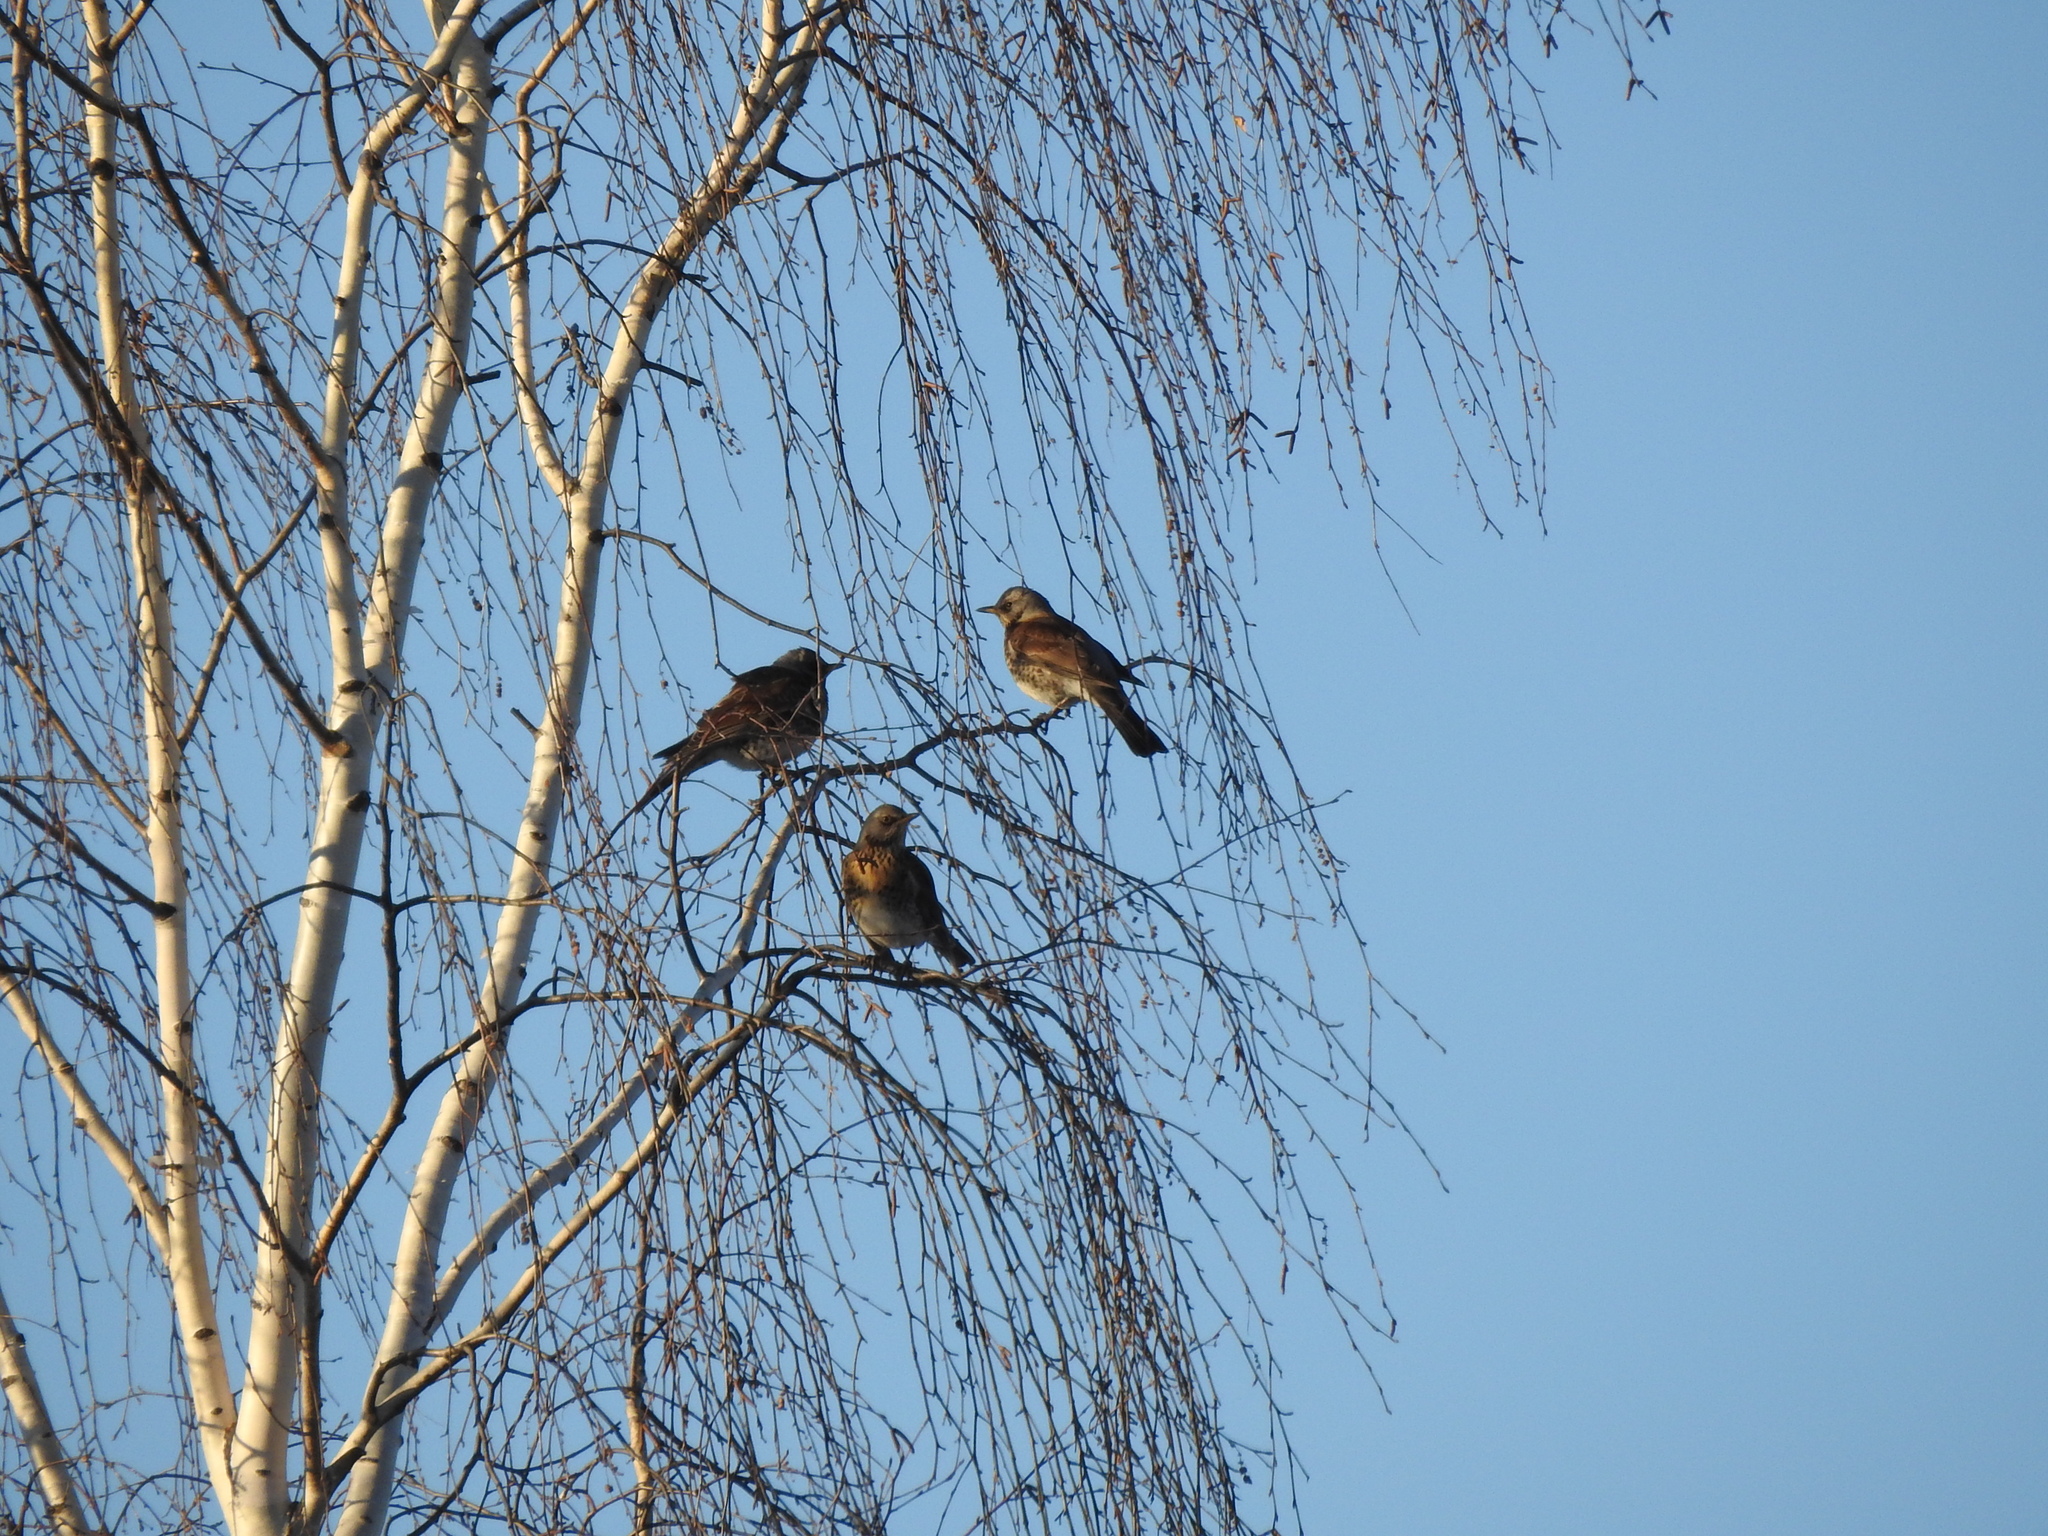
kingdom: Animalia
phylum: Chordata
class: Aves
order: Passeriformes
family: Turdidae
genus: Turdus
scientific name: Turdus pilaris
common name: Fieldfare
